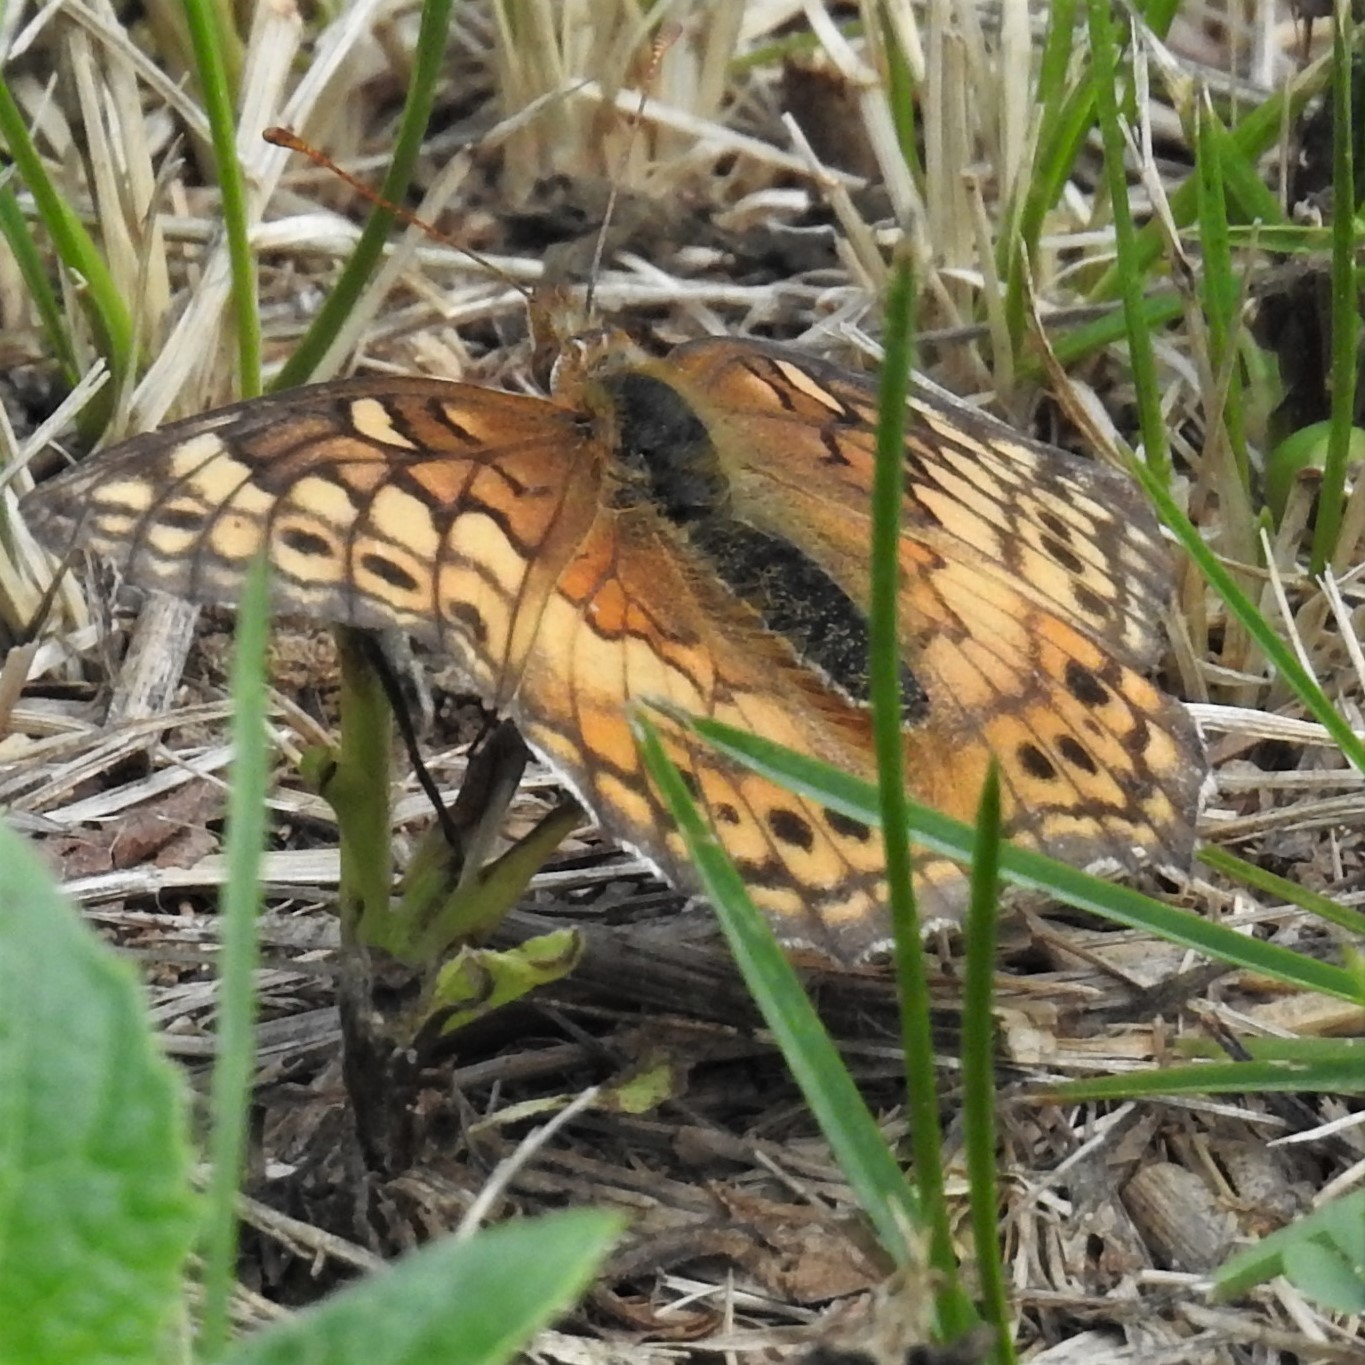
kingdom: Animalia
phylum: Arthropoda
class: Insecta
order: Lepidoptera
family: Nymphalidae
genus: Euptoieta
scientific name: Euptoieta claudia
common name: Variegated fritillary
